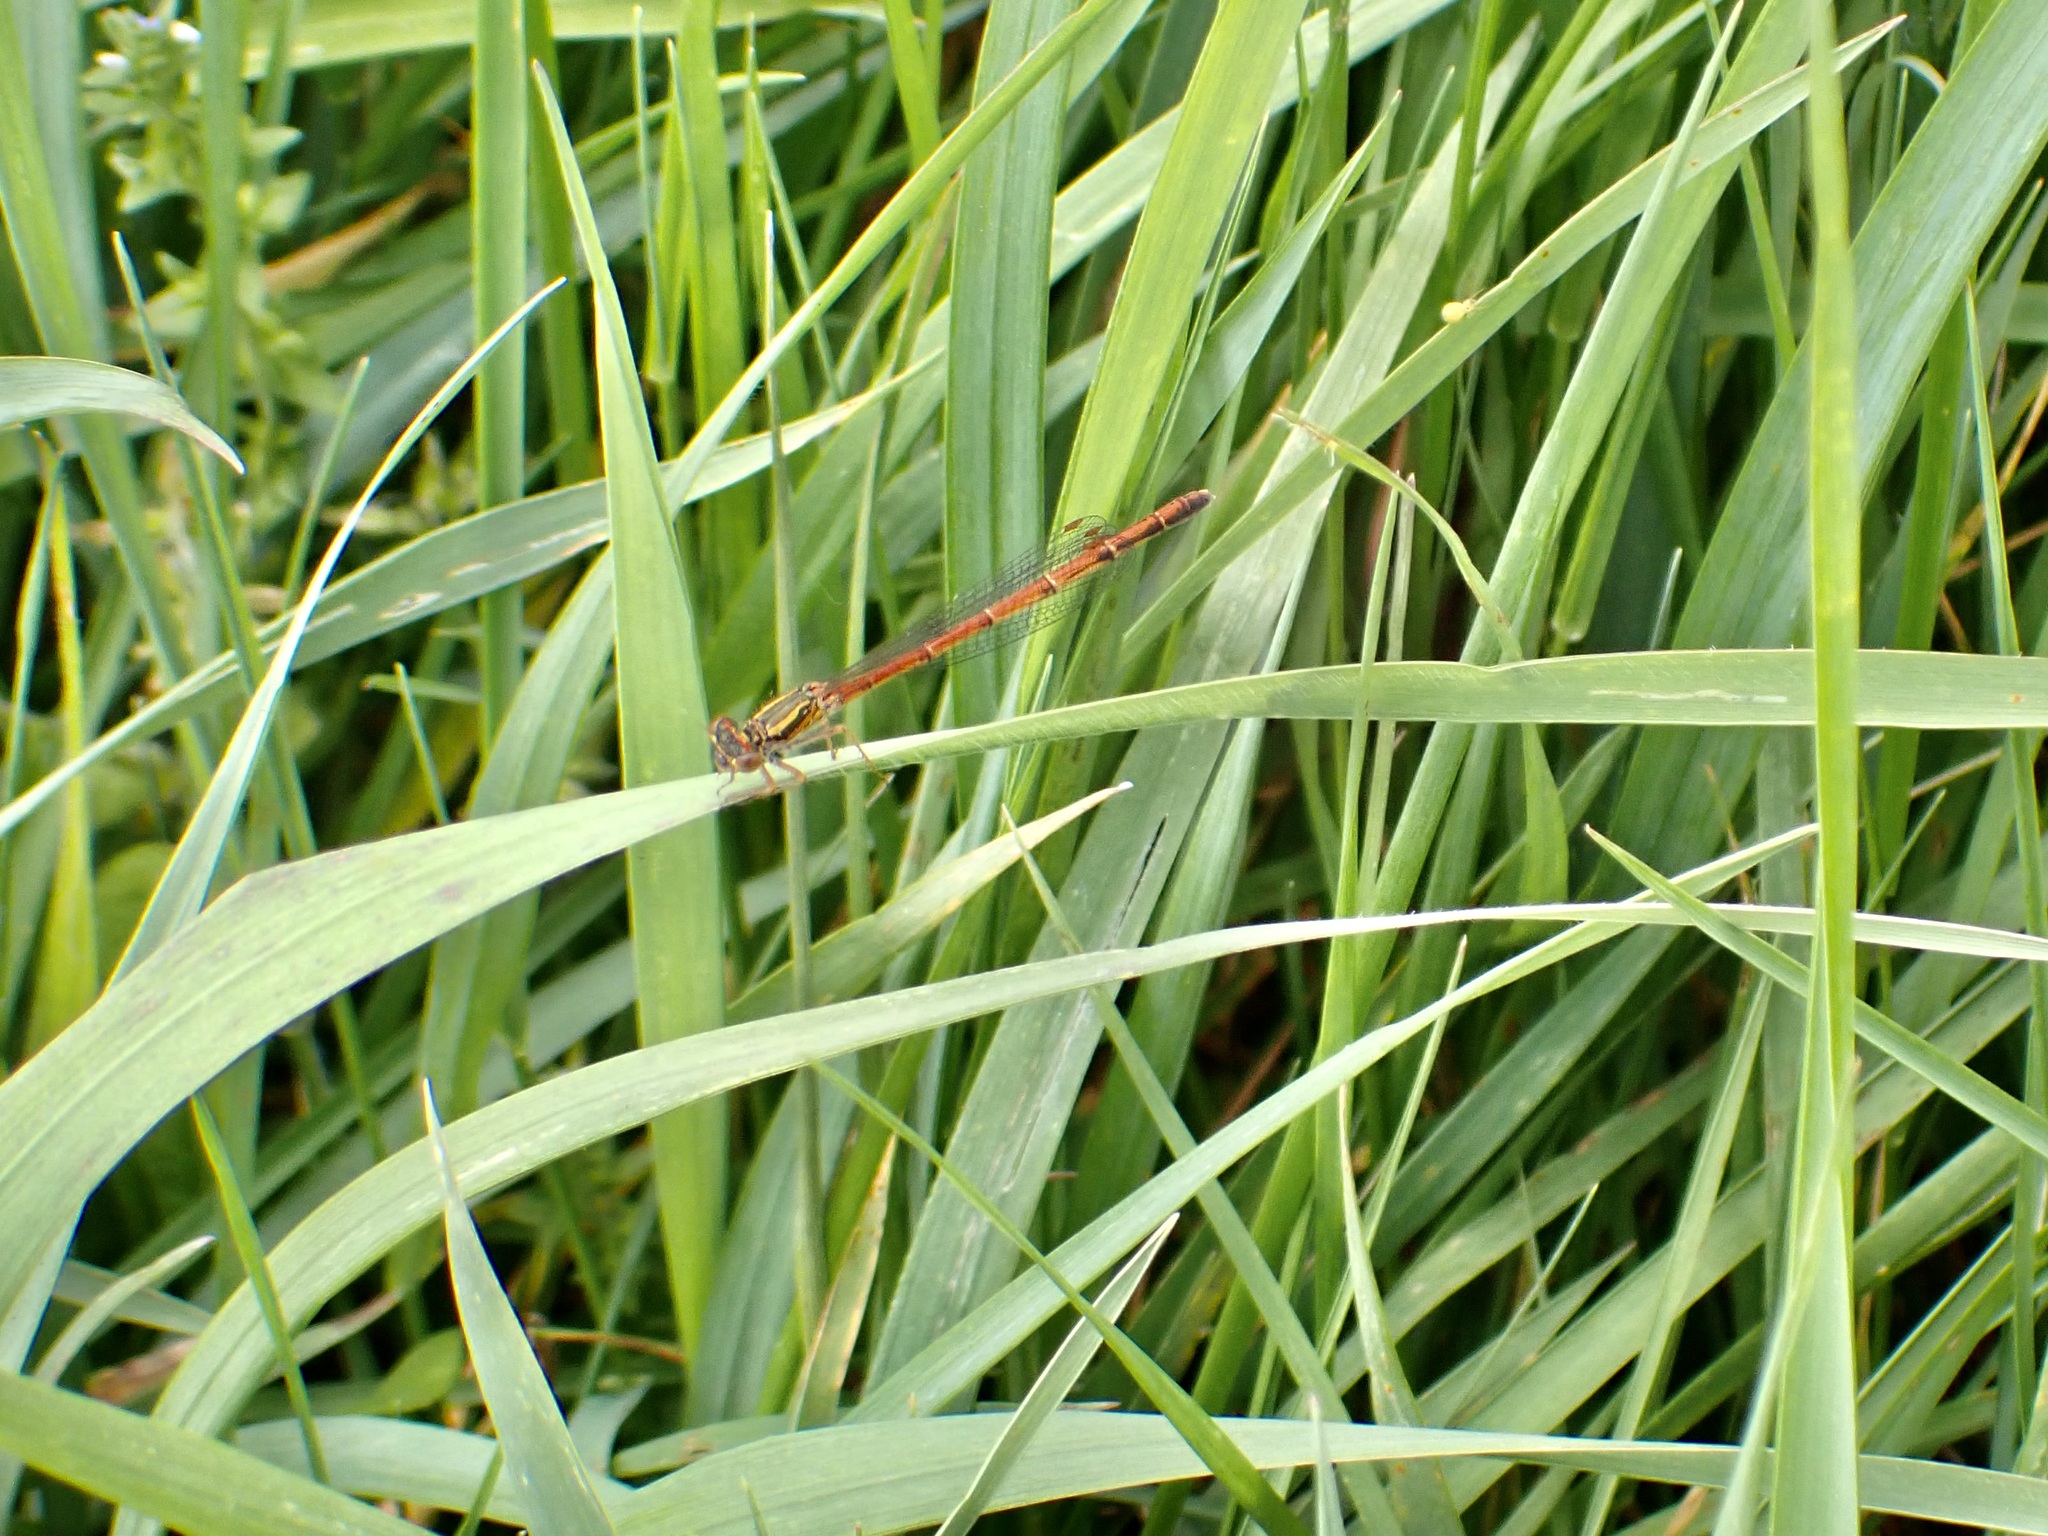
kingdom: Animalia
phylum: Arthropoda
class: Insecta
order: Odonata
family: Coenagrionidae
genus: Xanthocnemis
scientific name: Xanthocnemis zealandica
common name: Common redcoat damselfly
